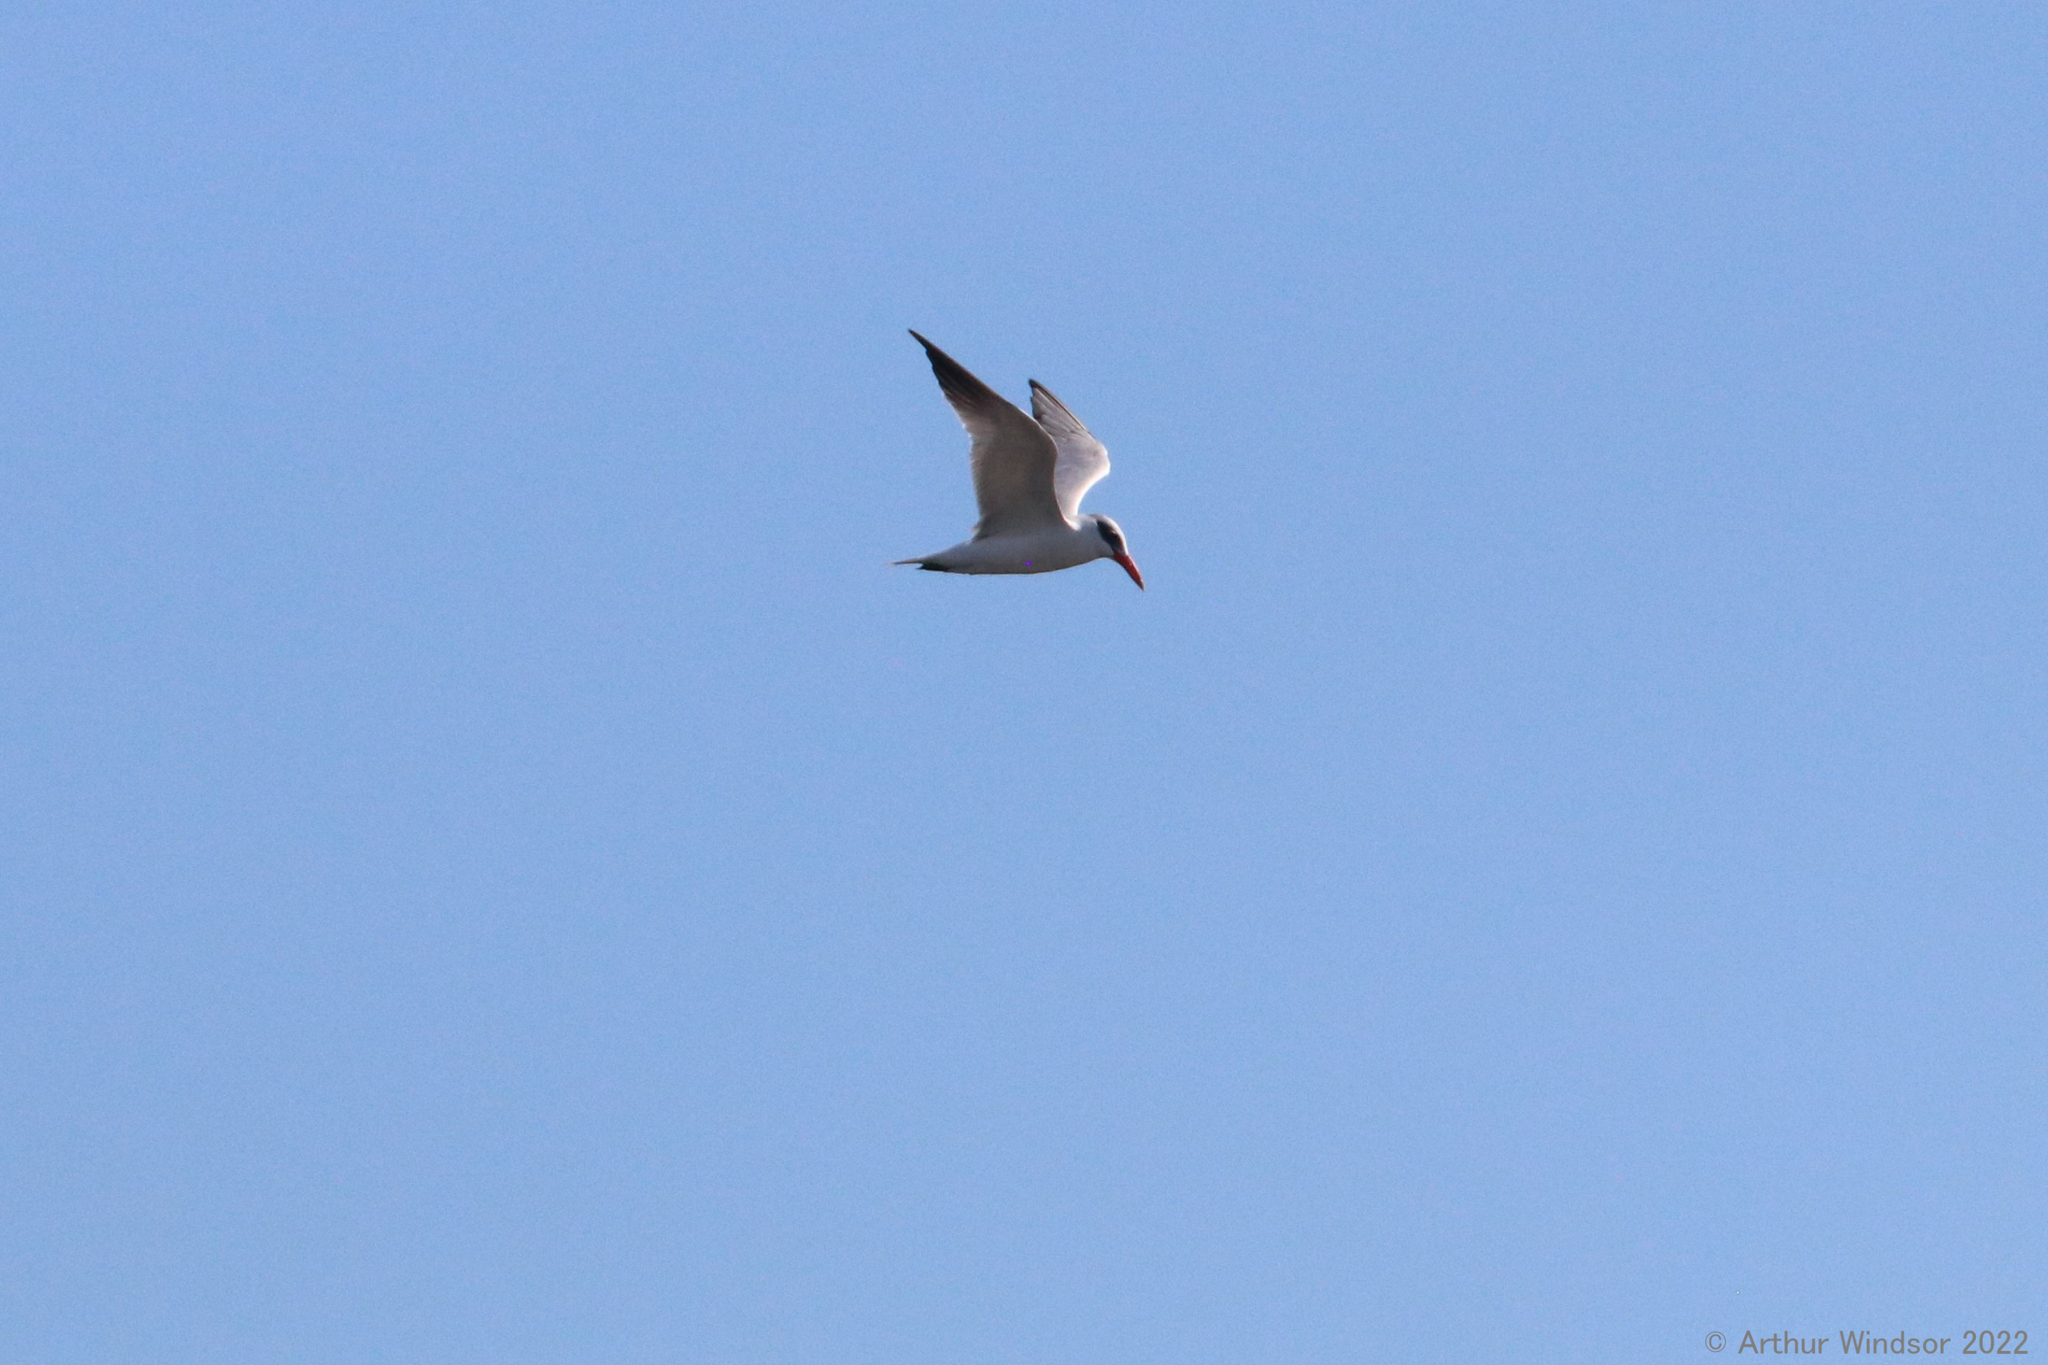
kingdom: Animalia
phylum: Chordata
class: Aves
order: Charadriiformes
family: Laridae
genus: Hydroprogne
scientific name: Hydroprogne caspia
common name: Caspian tern
